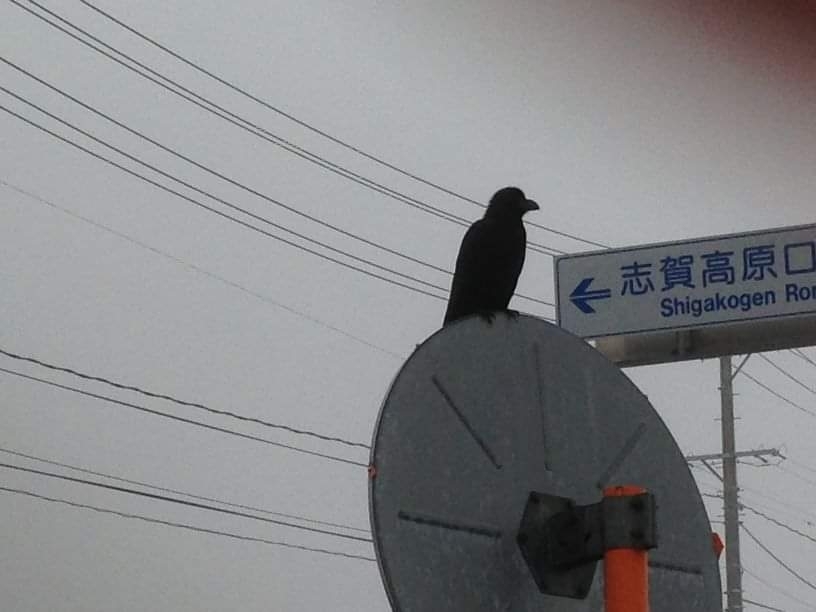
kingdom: Animalia
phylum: Chordata
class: Aves
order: Passeriformes
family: Corvidae
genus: Corvus
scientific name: Corvus macrorhynchos
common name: Large-billed crow
